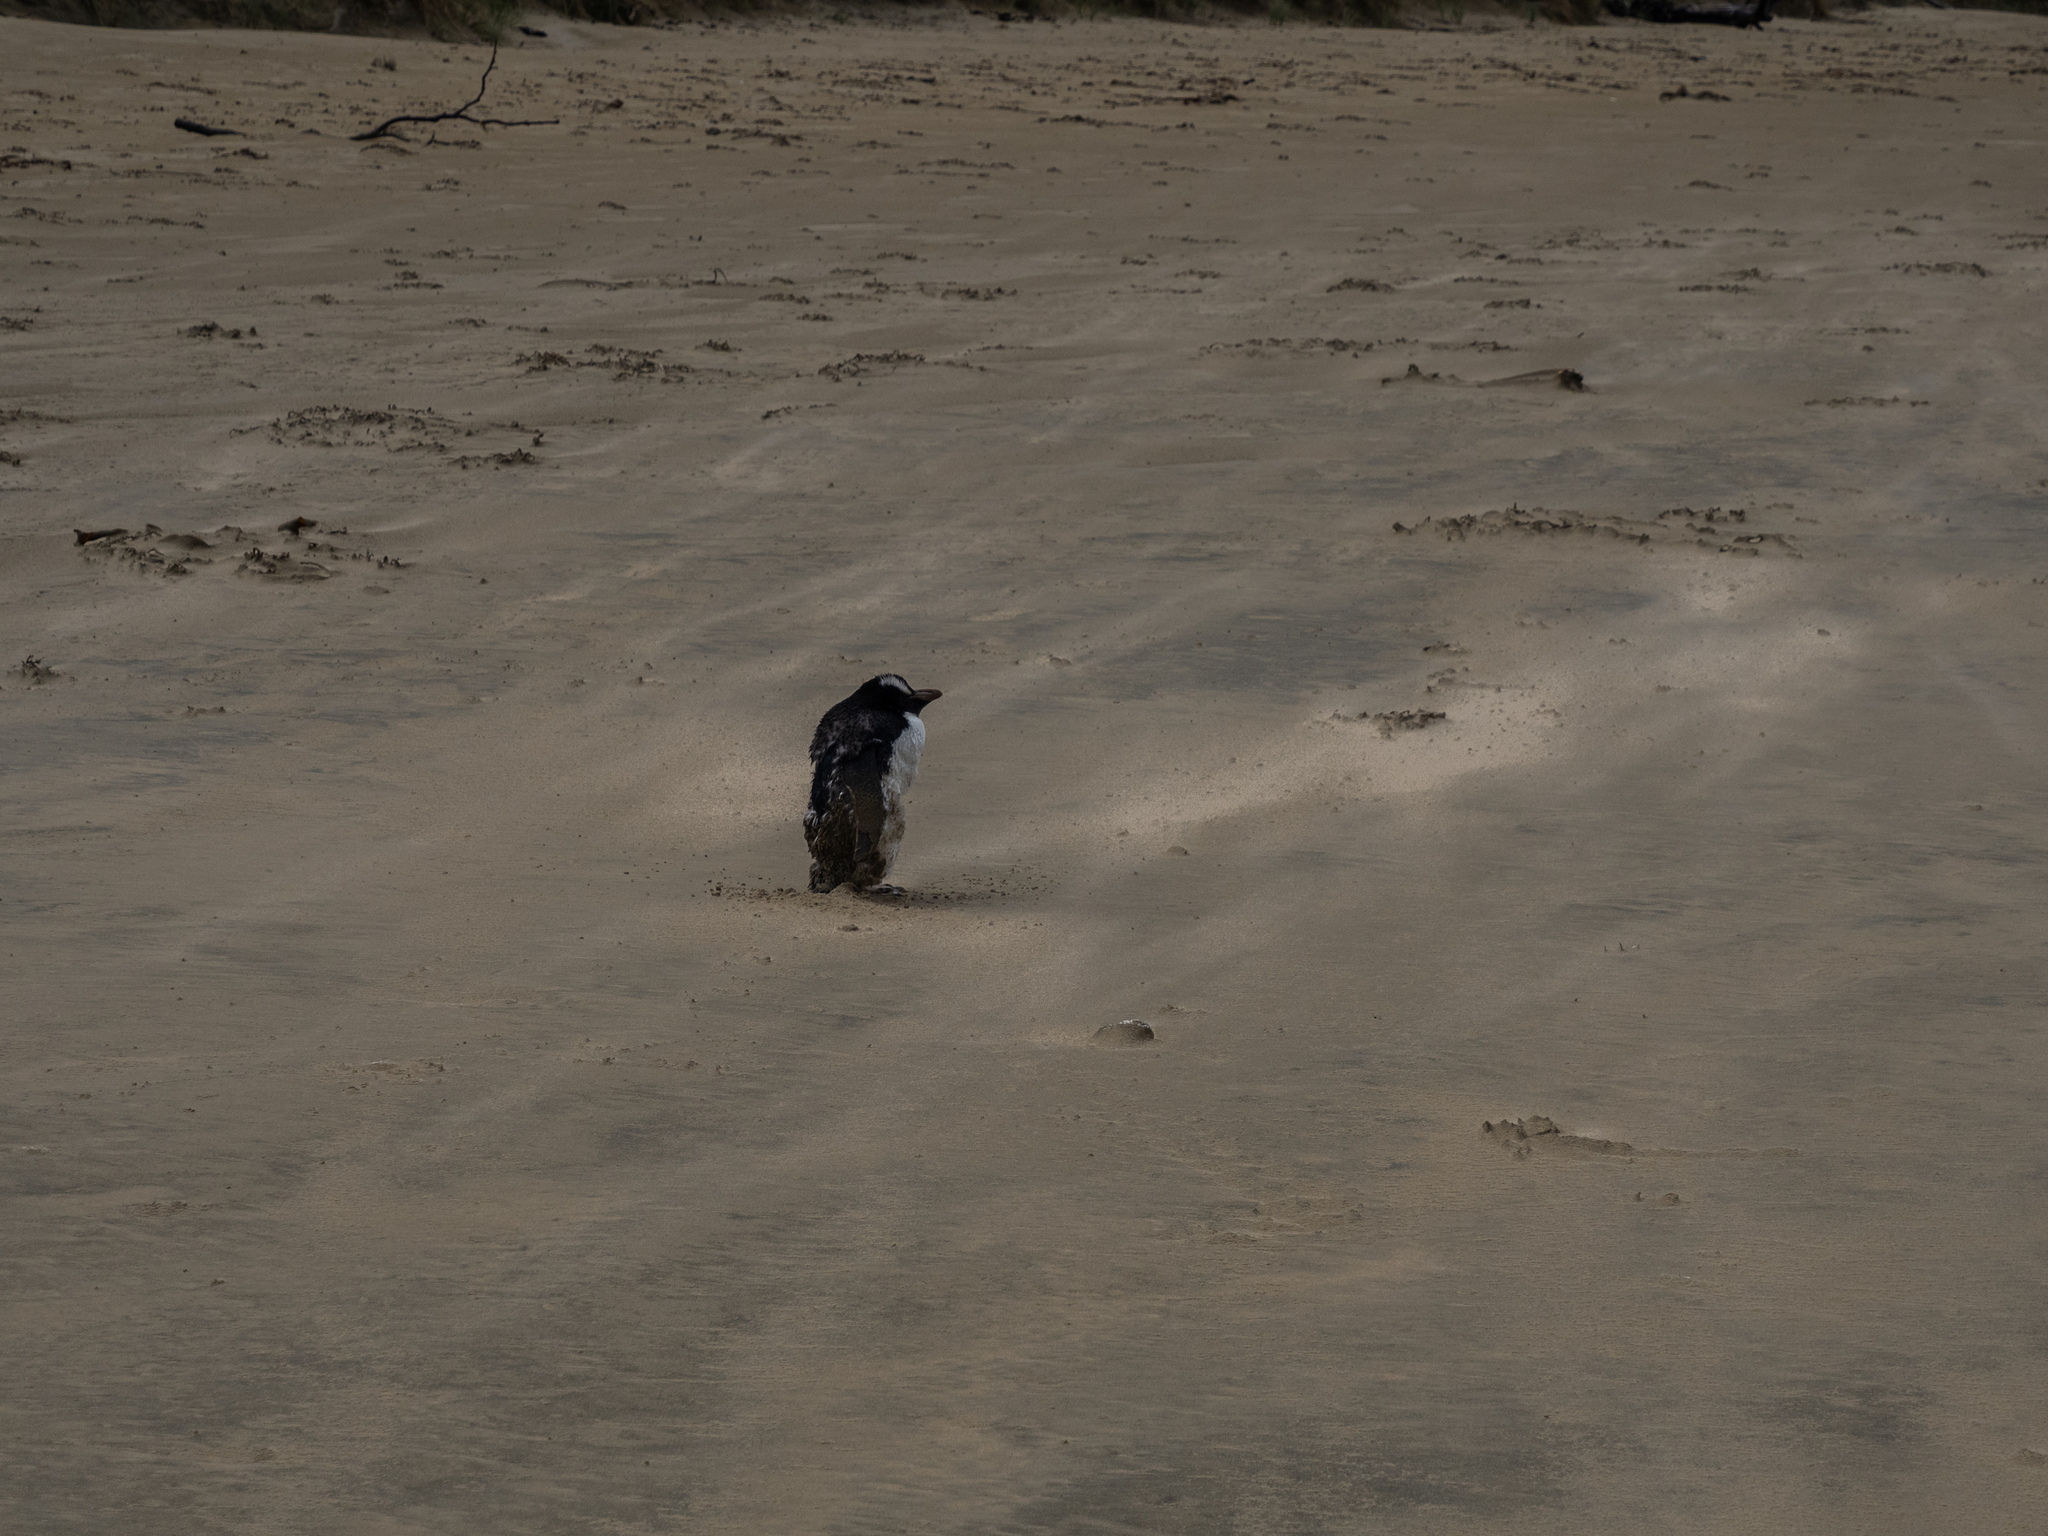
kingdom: Animalia
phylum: Chordata
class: Aves
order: Sphenisciformes
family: Spheniscidae
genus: Eudyptes
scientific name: Eudyptes sclateri
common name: Erect-crested penguin
